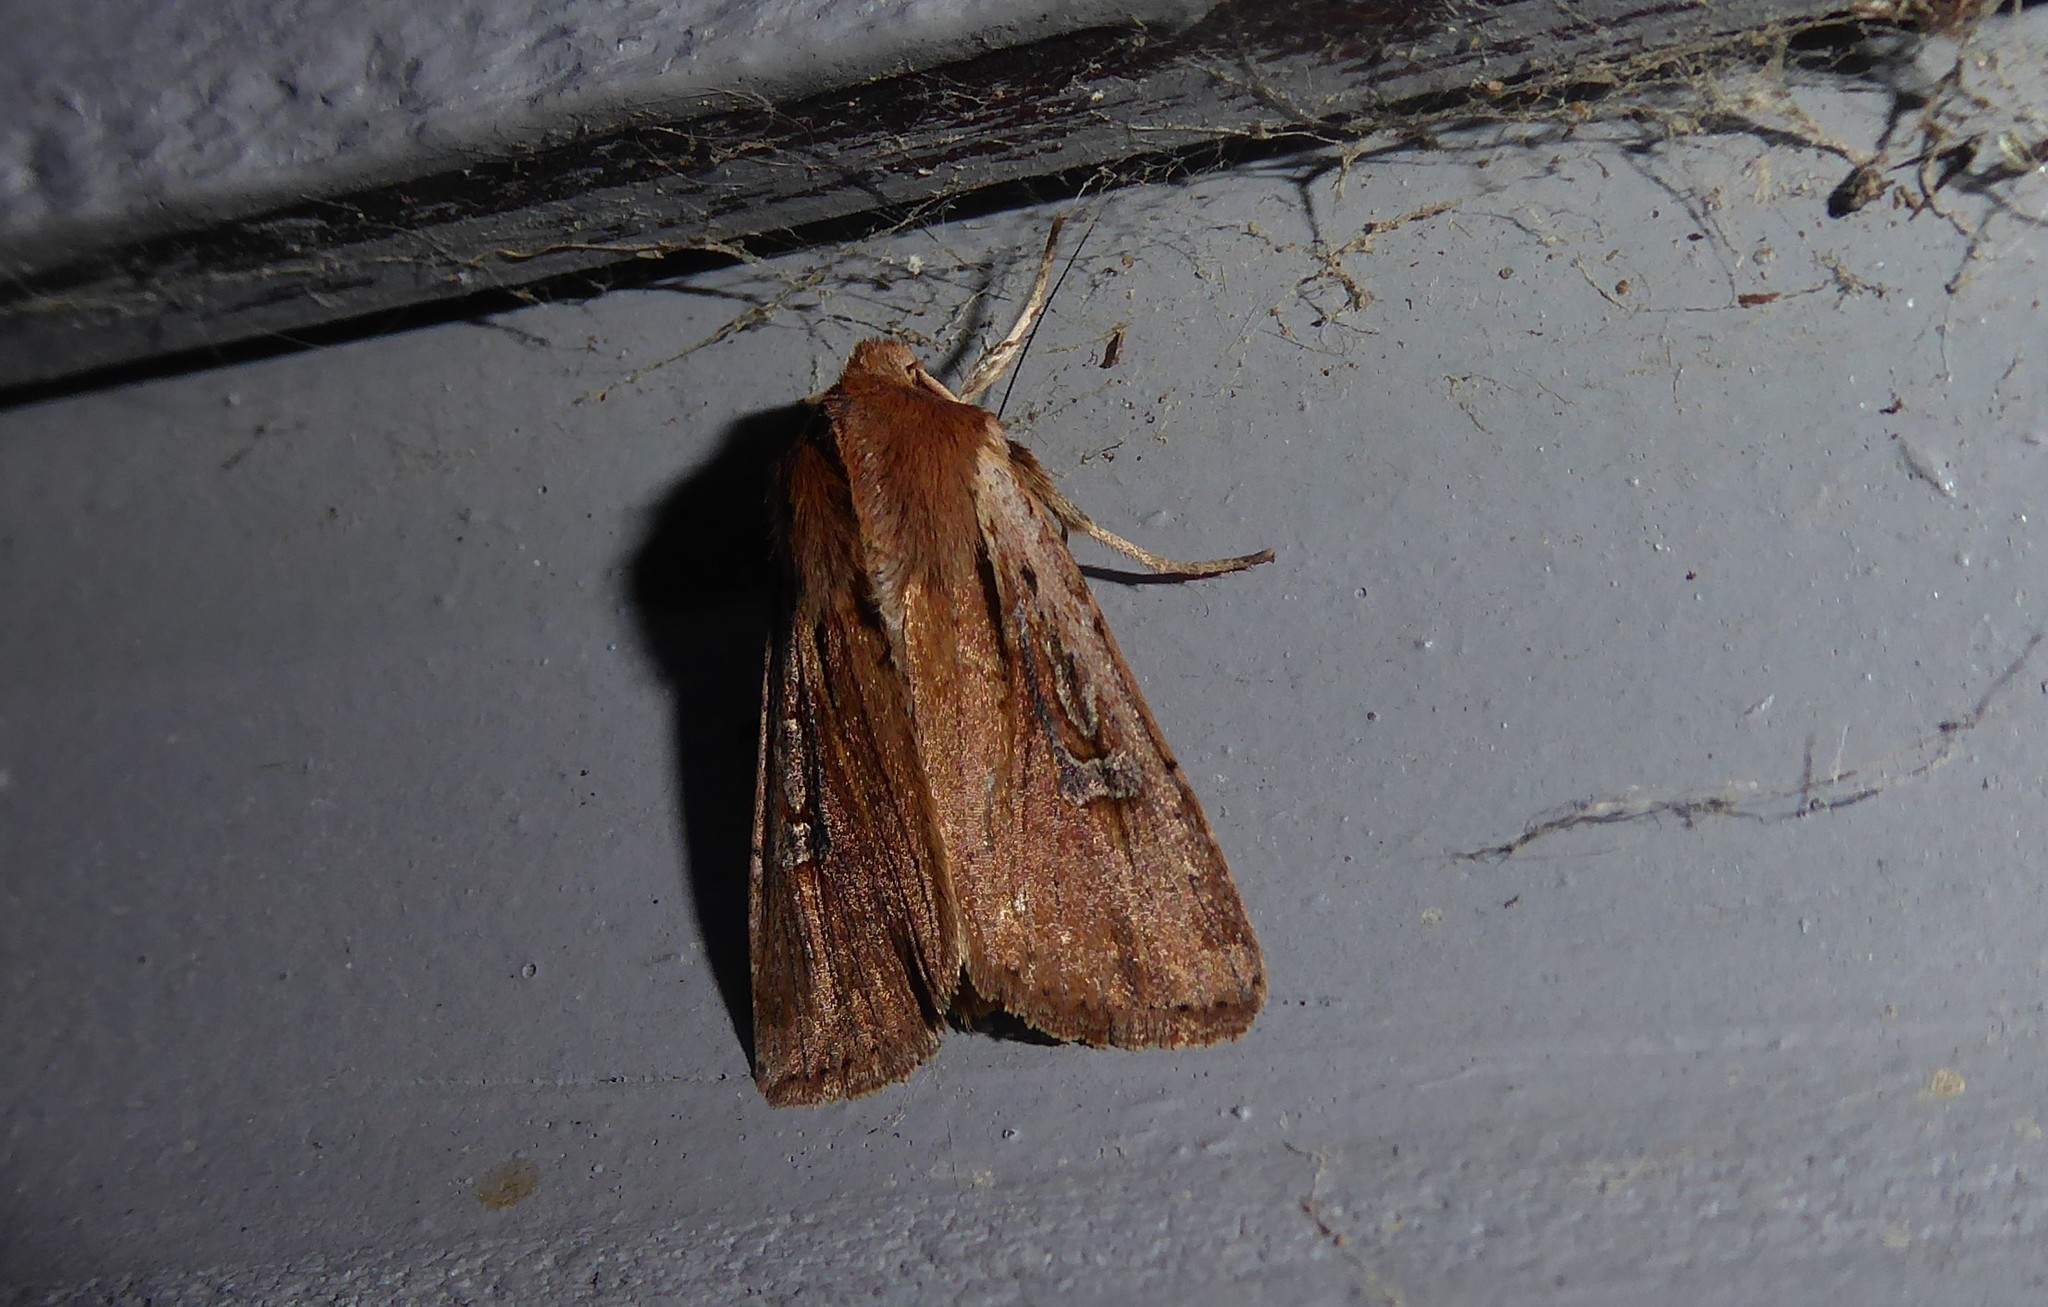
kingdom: Animalia
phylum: Arthropoda
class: Insecta
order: Lepidoptera
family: Noctuidae
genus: Ichneutica
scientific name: Ichneutica atristriga
